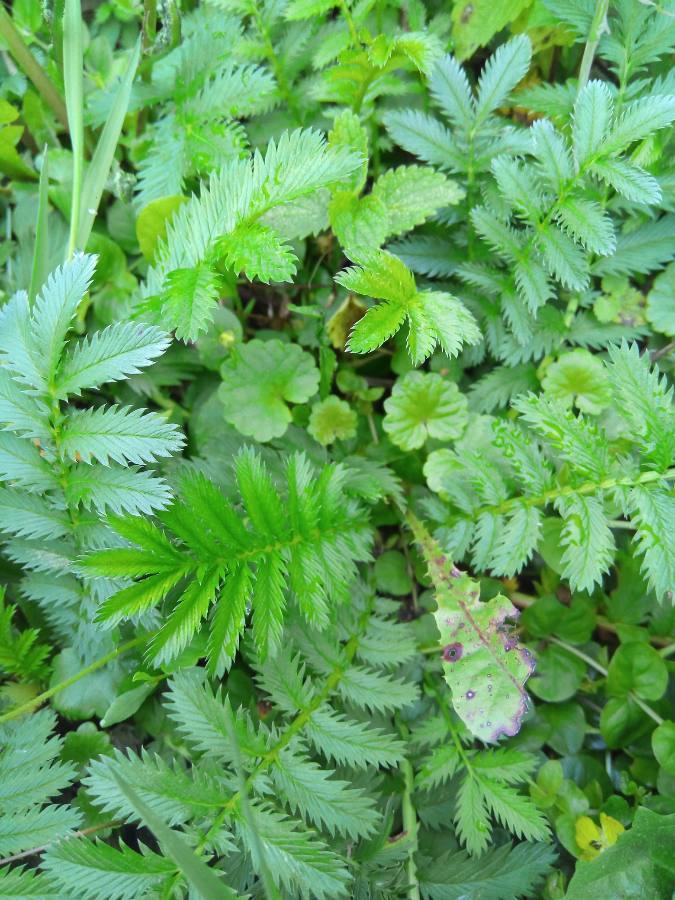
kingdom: Plantae
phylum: Tracheophyta
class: Magnoliopsida
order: Rosales
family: Rosaceae
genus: Argentina
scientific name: Argentina anserina
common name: Common silverweed
